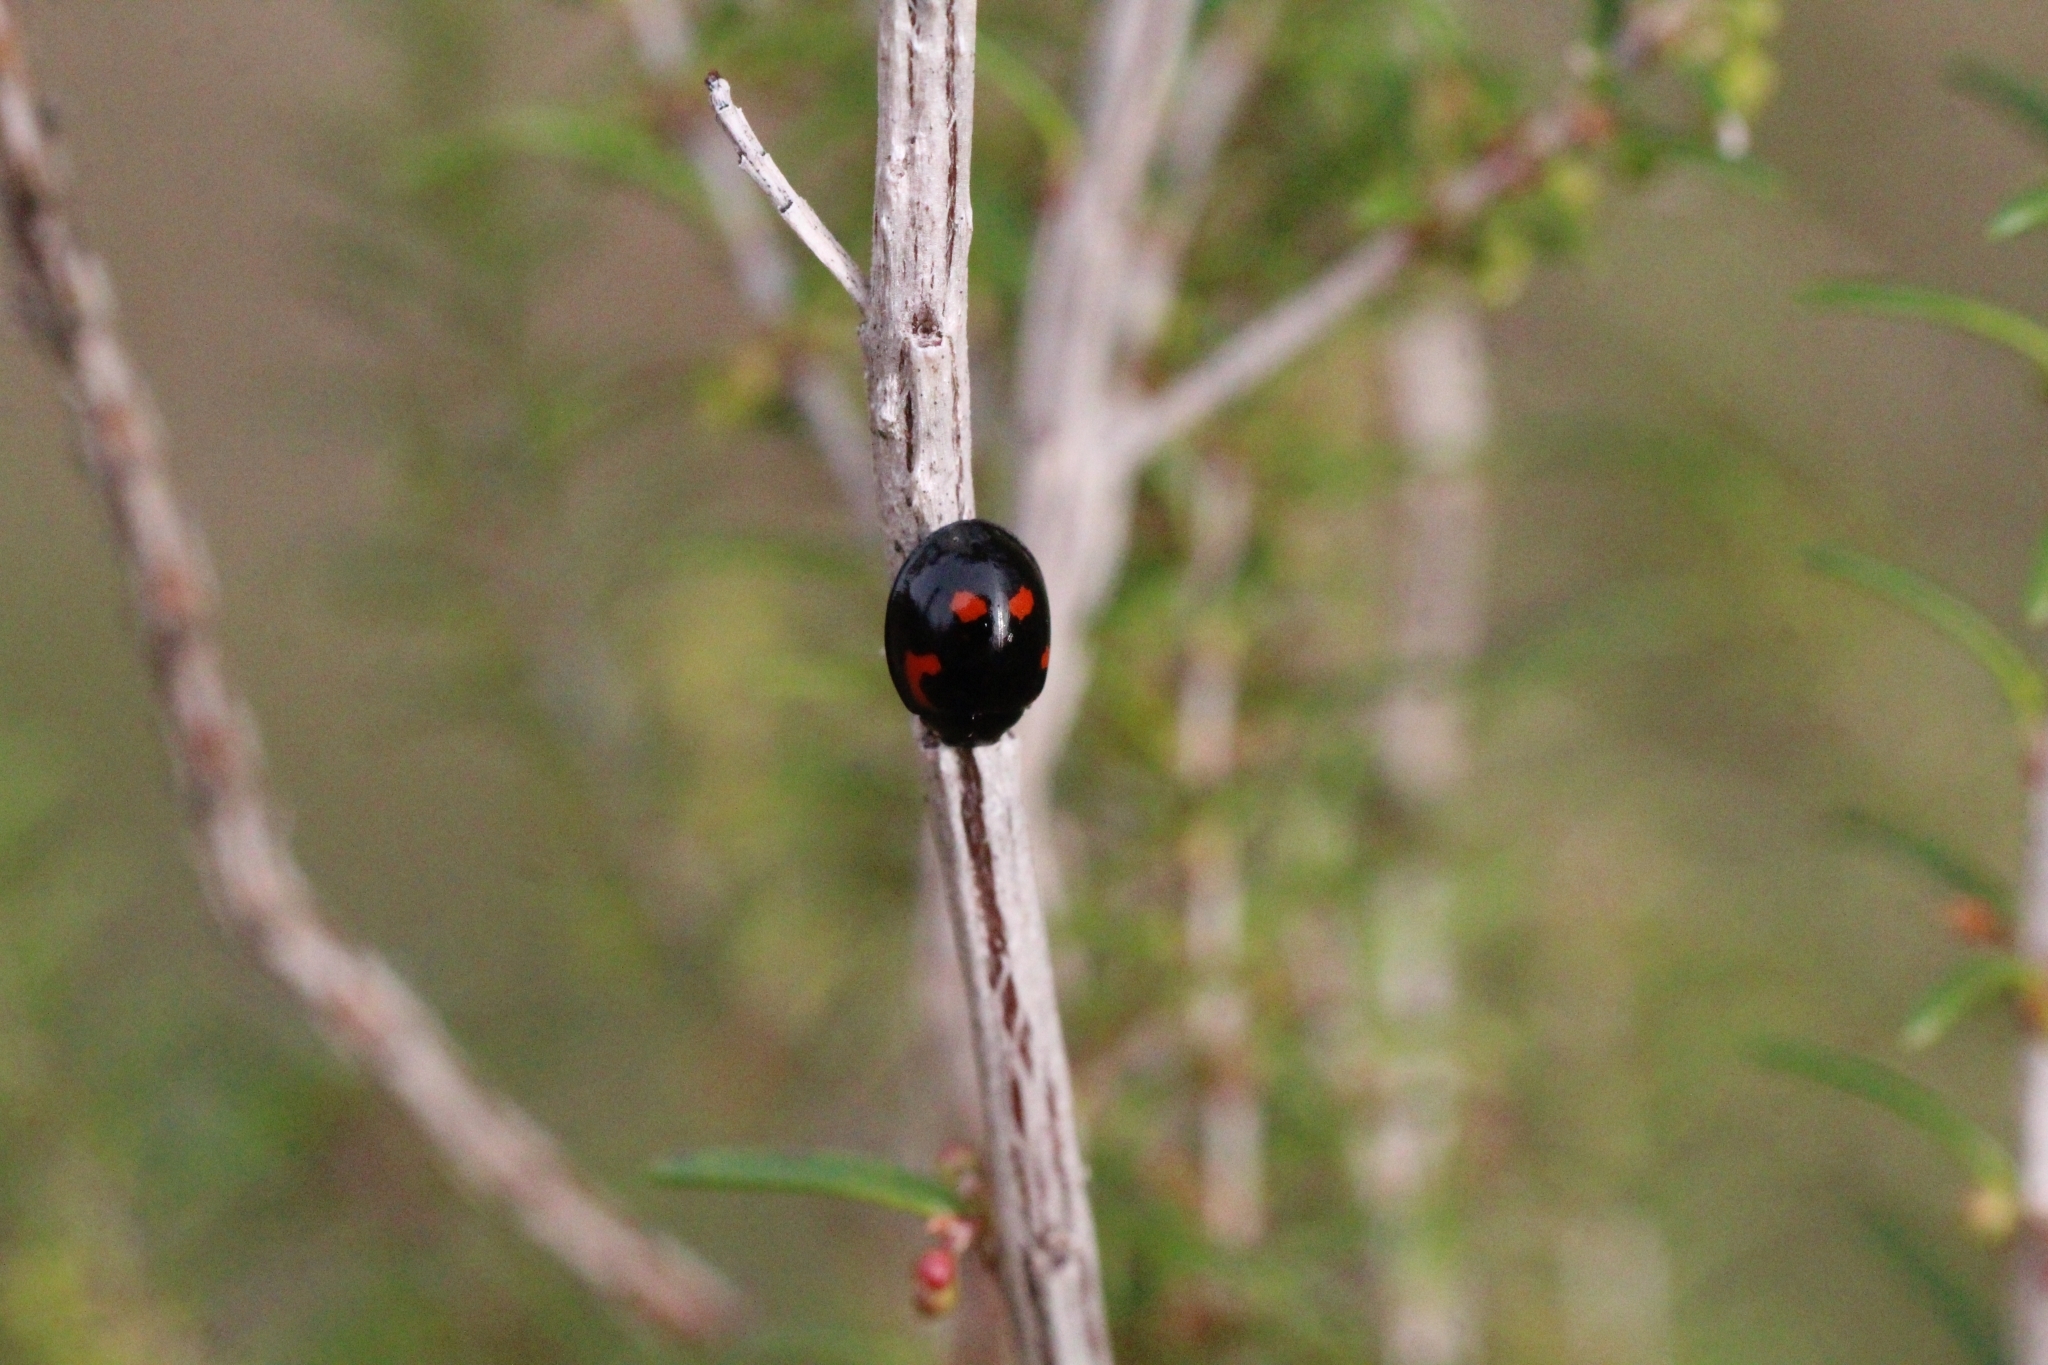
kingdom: Animalia
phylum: Arthropoda
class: Insecta
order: Coleoptera
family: Coccinellidae
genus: Brumus
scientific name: Brumus quadripustulatus
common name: Ladybird beetle
